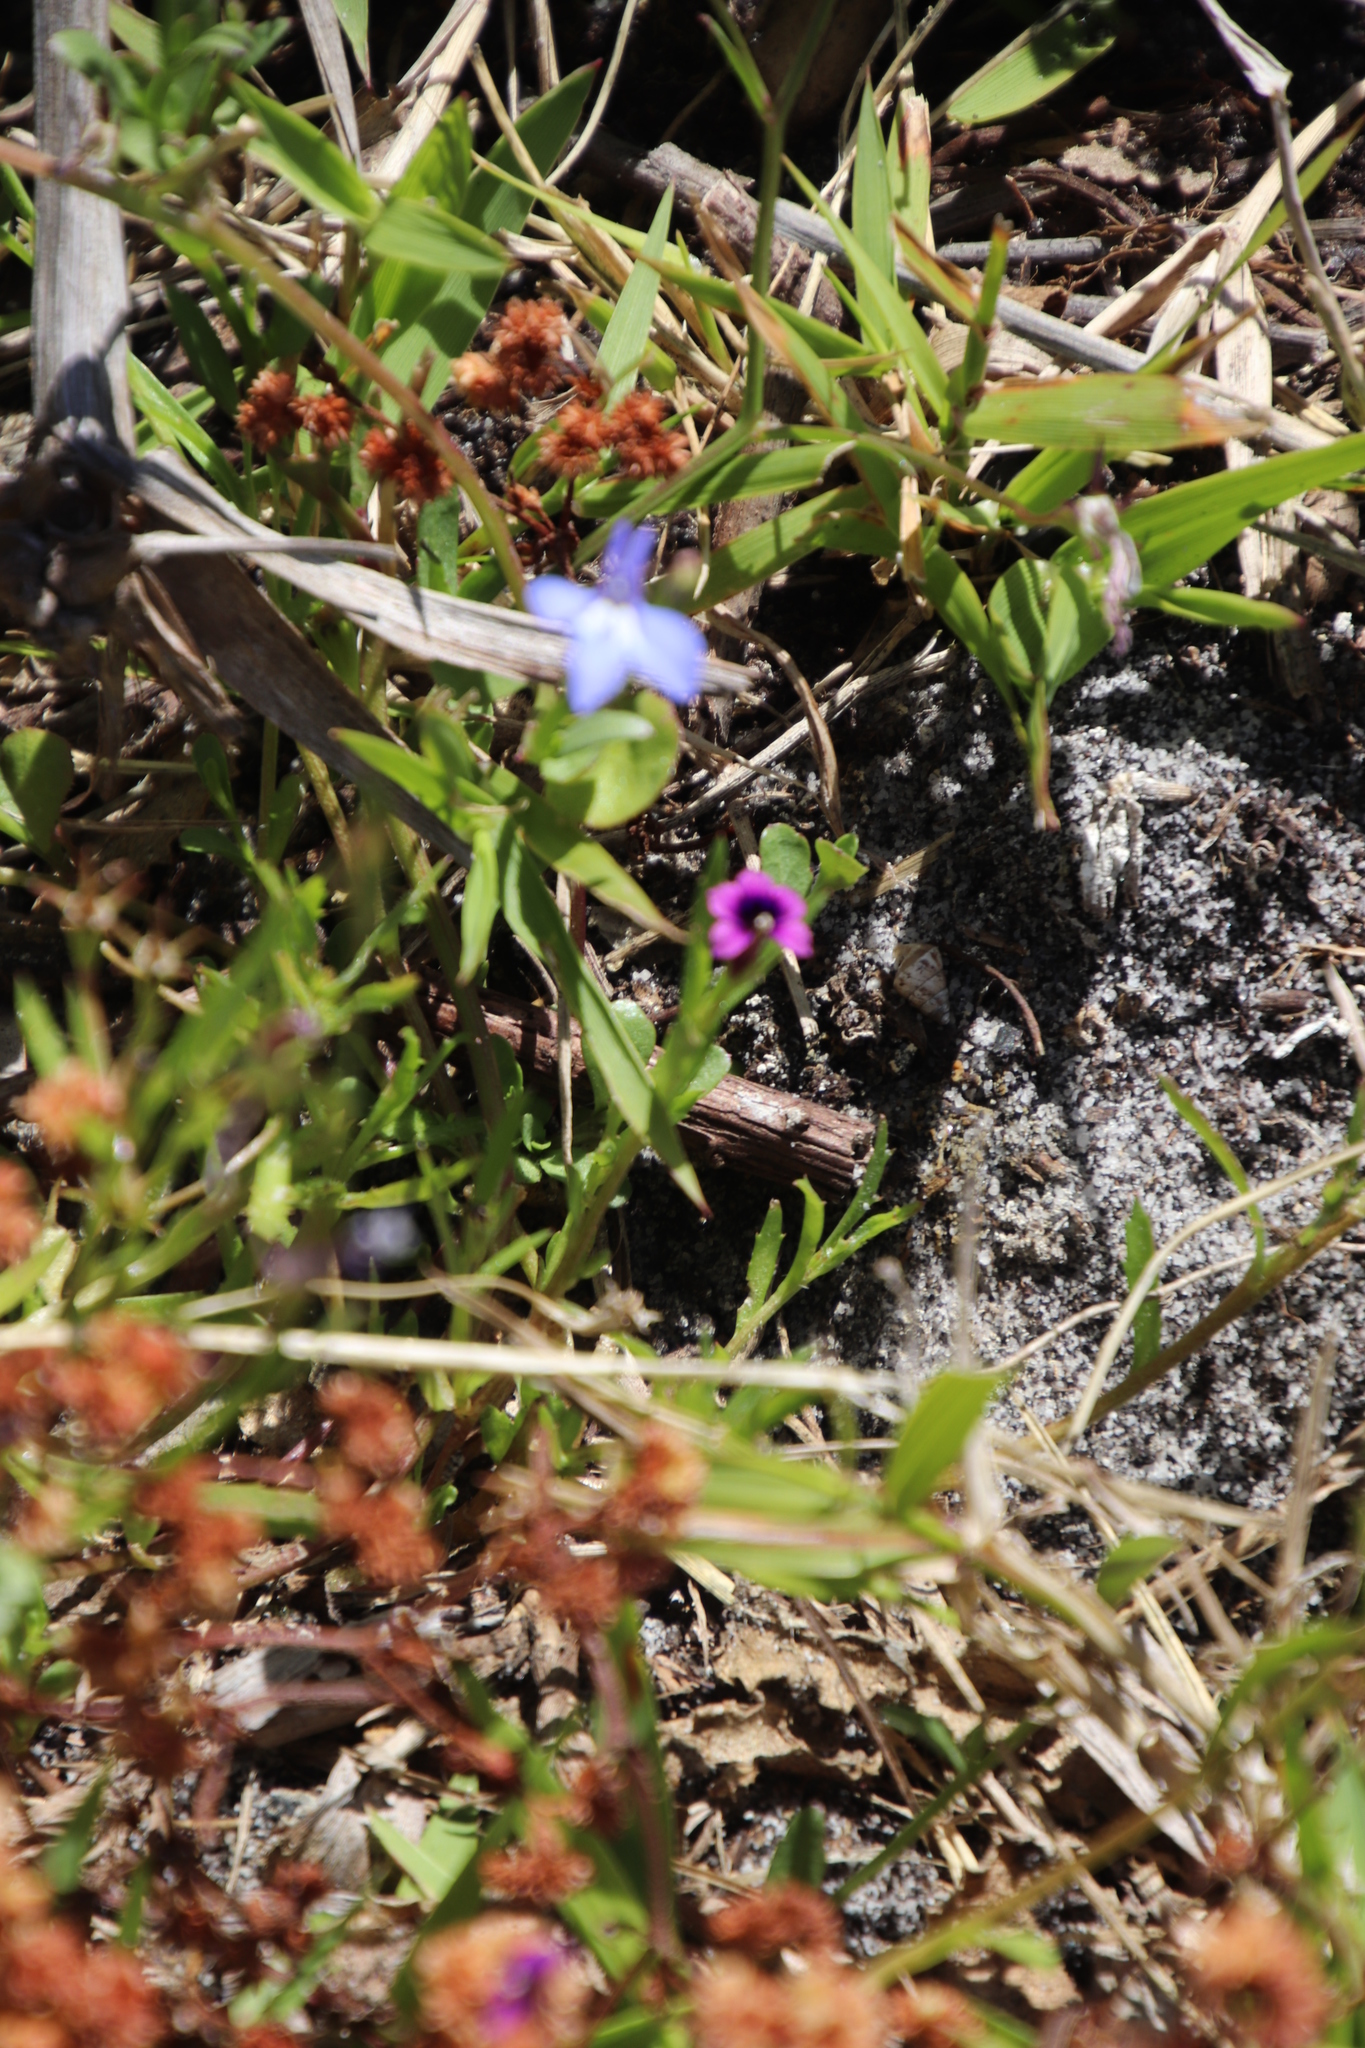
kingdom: Plantae
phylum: Tracheophyta
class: Magnoliopsida
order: Asterales
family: Campanulaceae
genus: Monopsis
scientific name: Monopsis debilis
